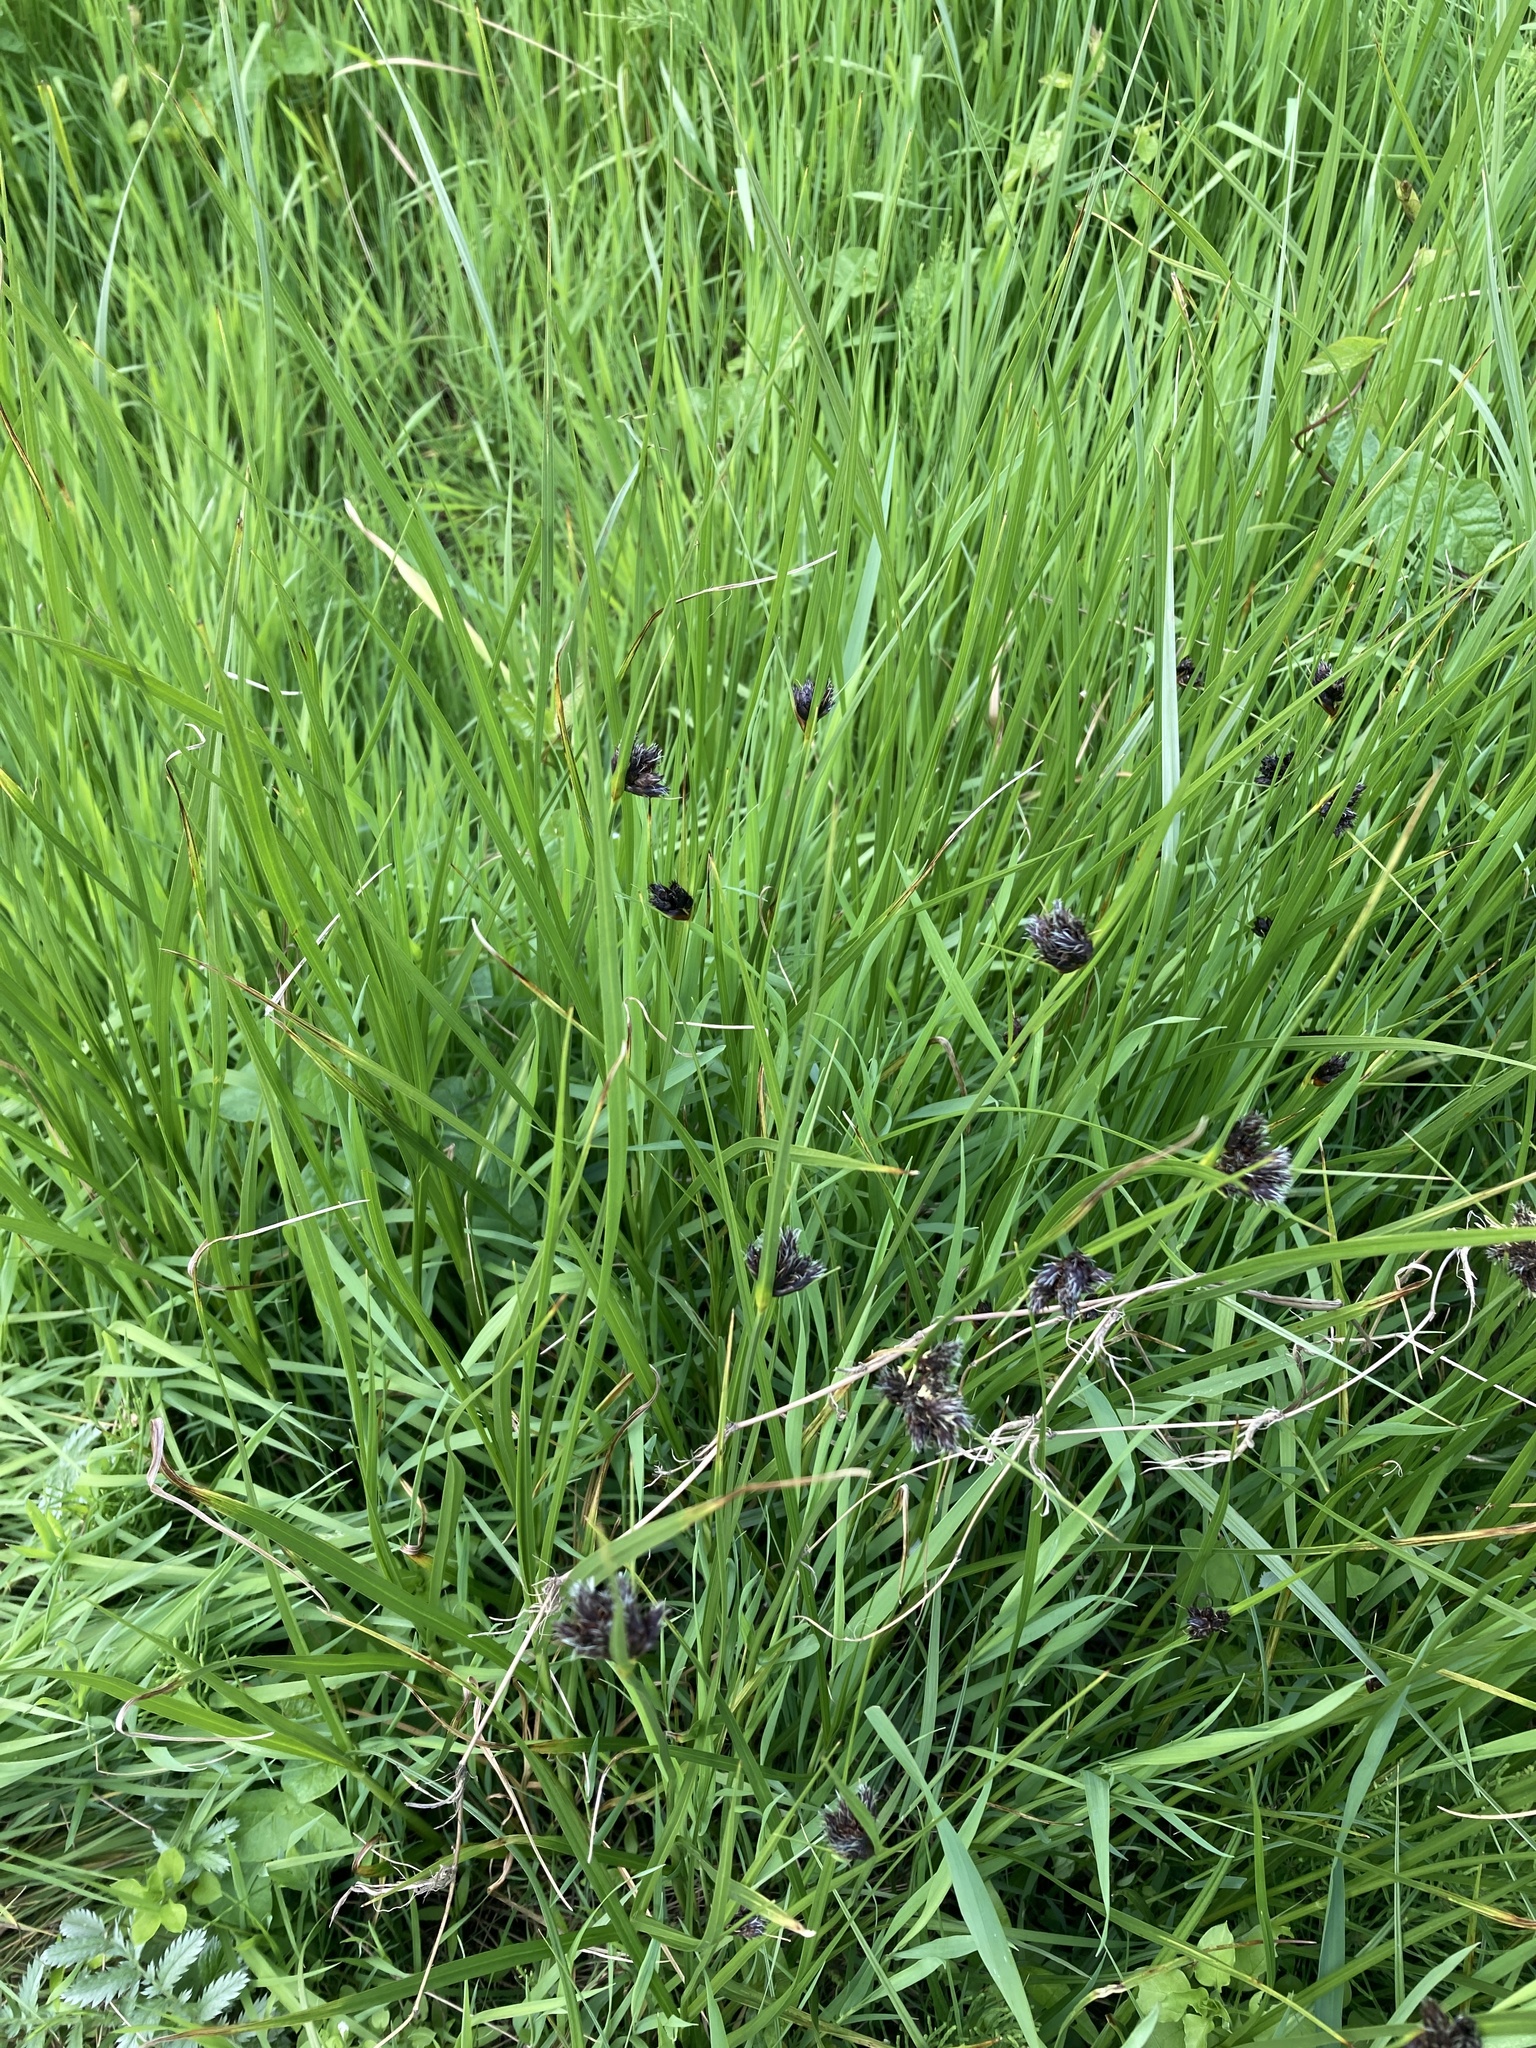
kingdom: Plantae
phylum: Tracheophyta
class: Liliopsida
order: Poales
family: Cyperaceae
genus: Schoenus
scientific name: Schoenus nigricans
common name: Black bog-rush
